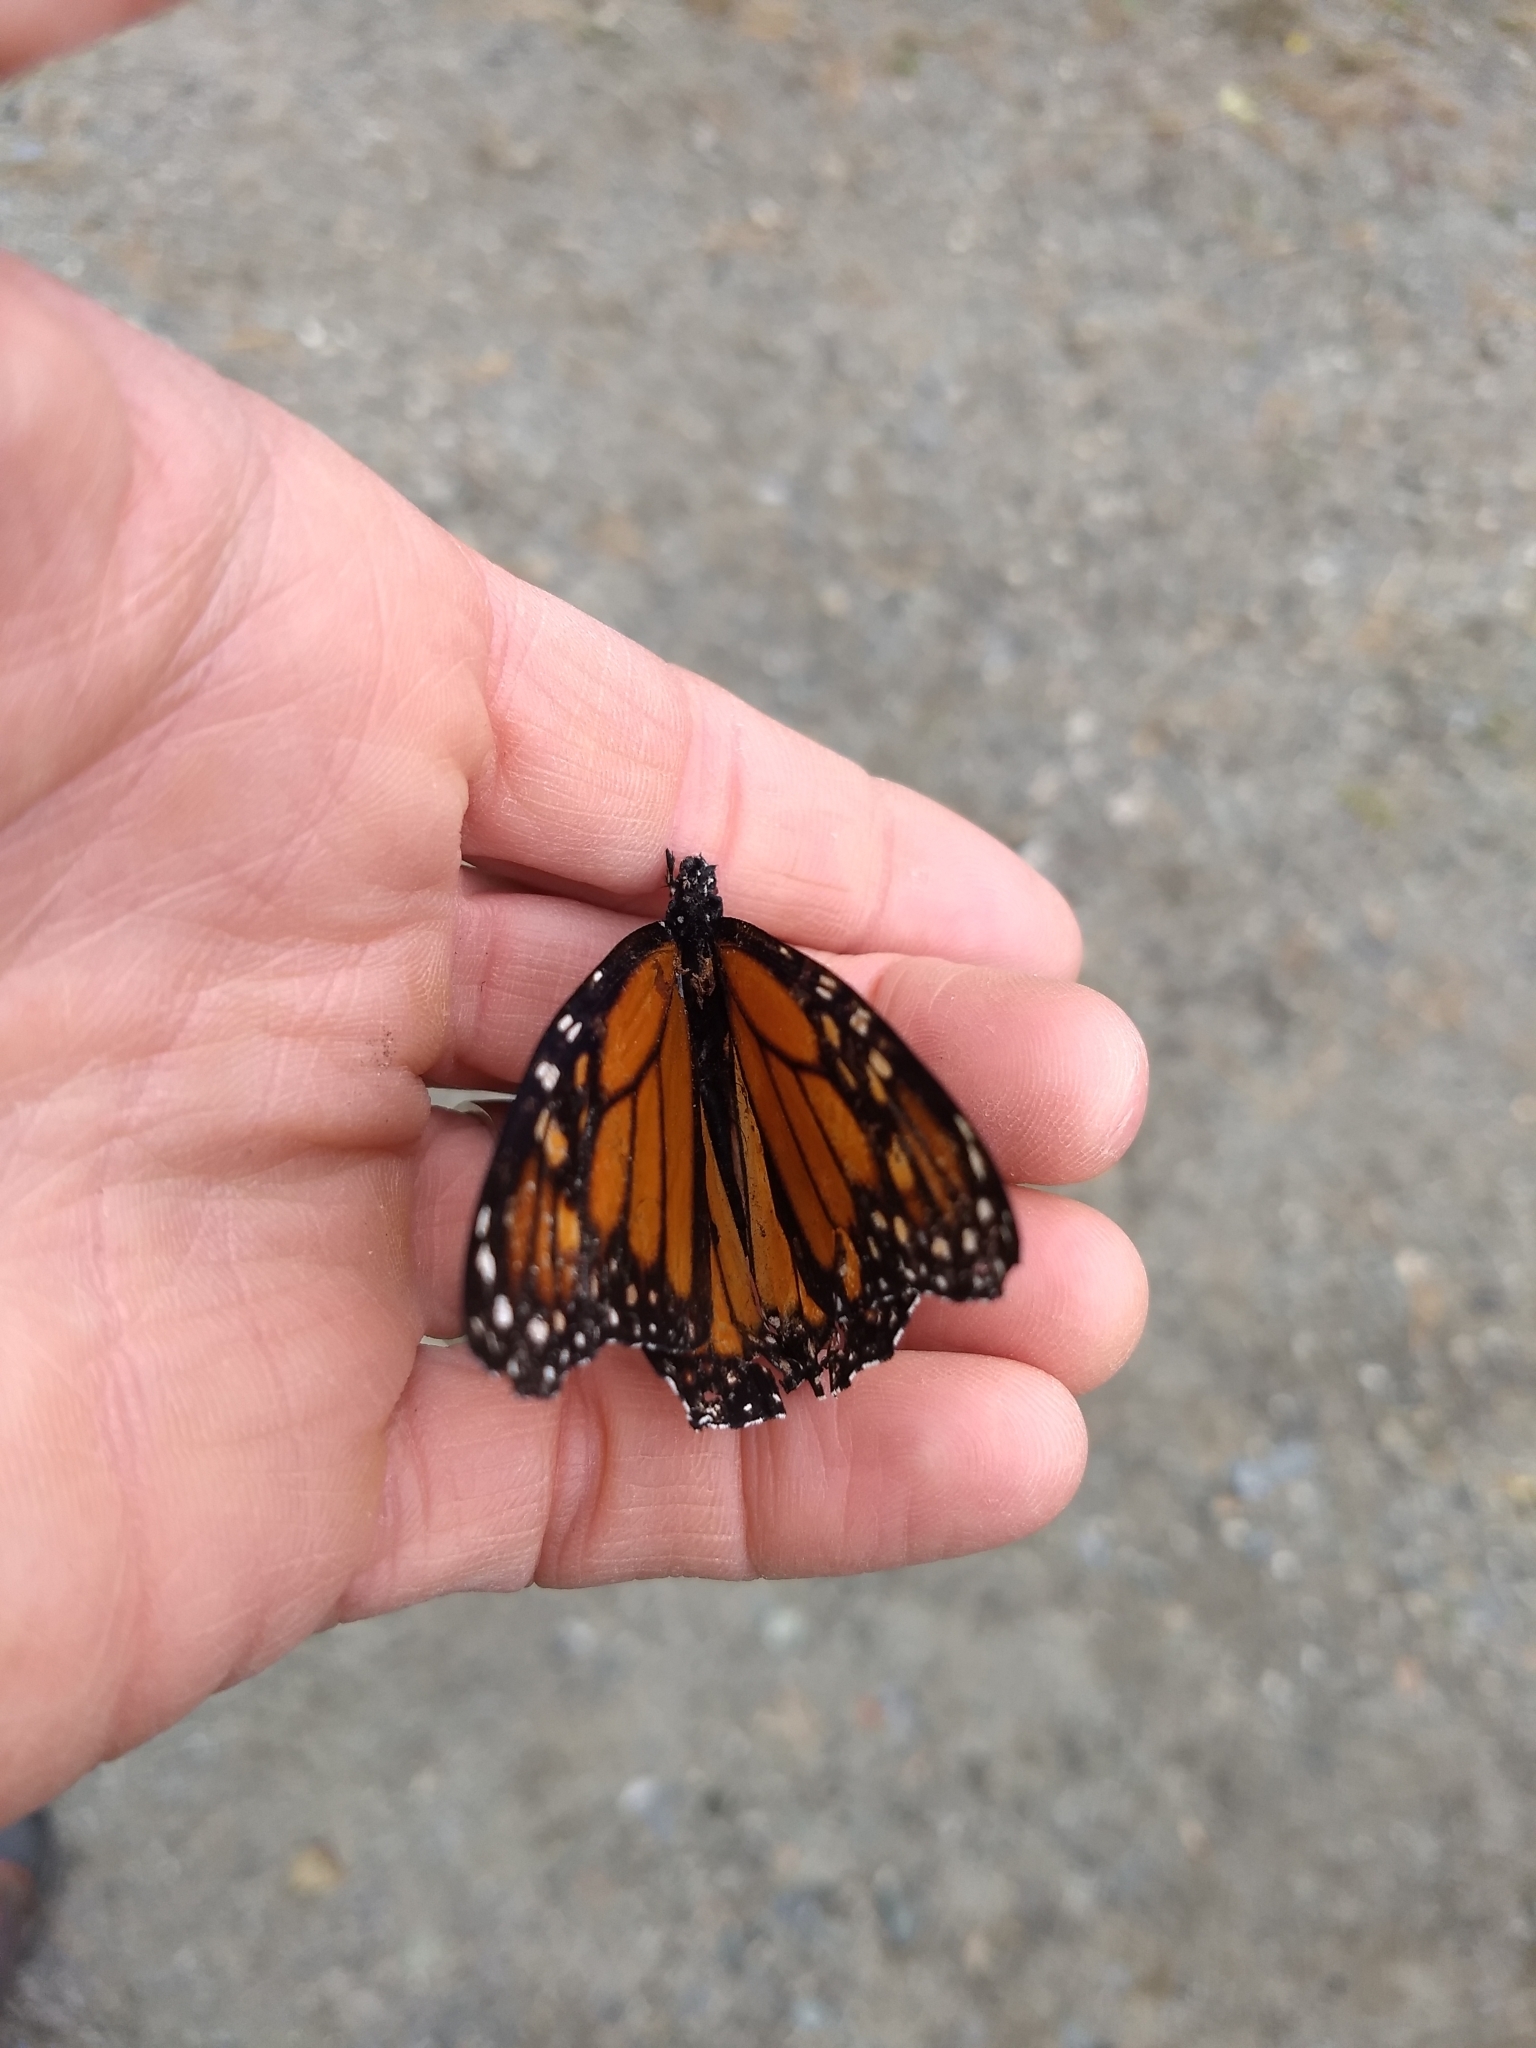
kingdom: Animalia
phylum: Arthropoda
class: Insecta
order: Lepidoptera
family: Nymphalidae
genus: Danaus
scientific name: Danaus plexippus
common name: Monarch
